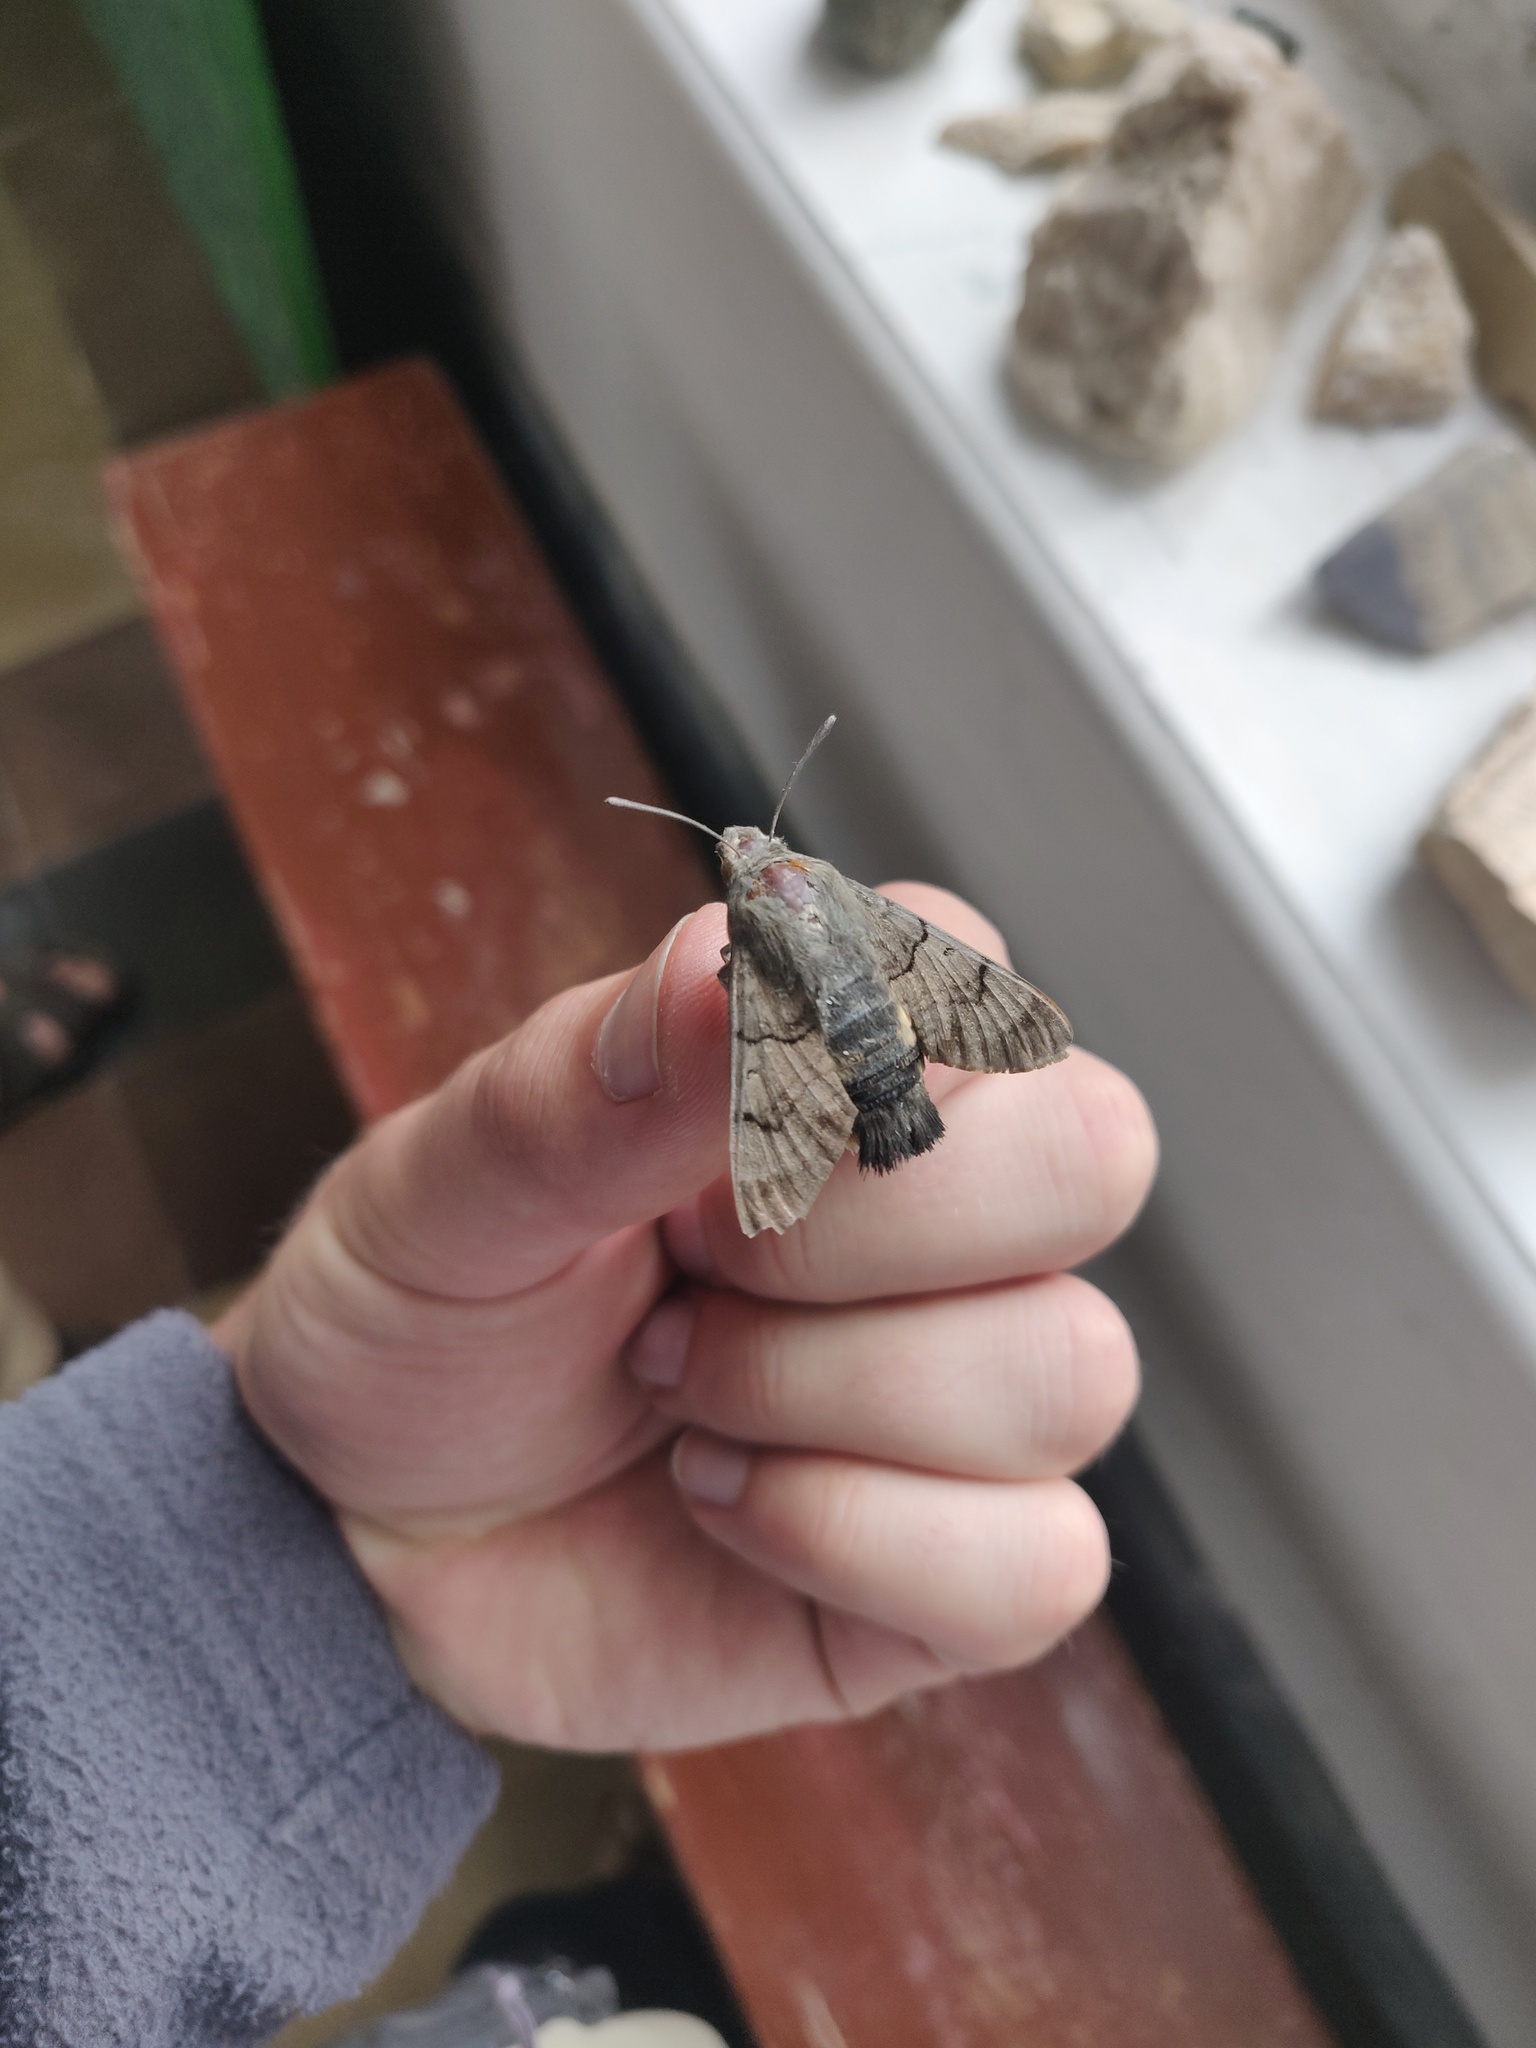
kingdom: Animalia
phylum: Arthropoda
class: Insecta
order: Lepidoptera
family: Sphingidae
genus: Macroglossum
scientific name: Macroglossum stellatarum
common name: Humming-bird hawk-moth
